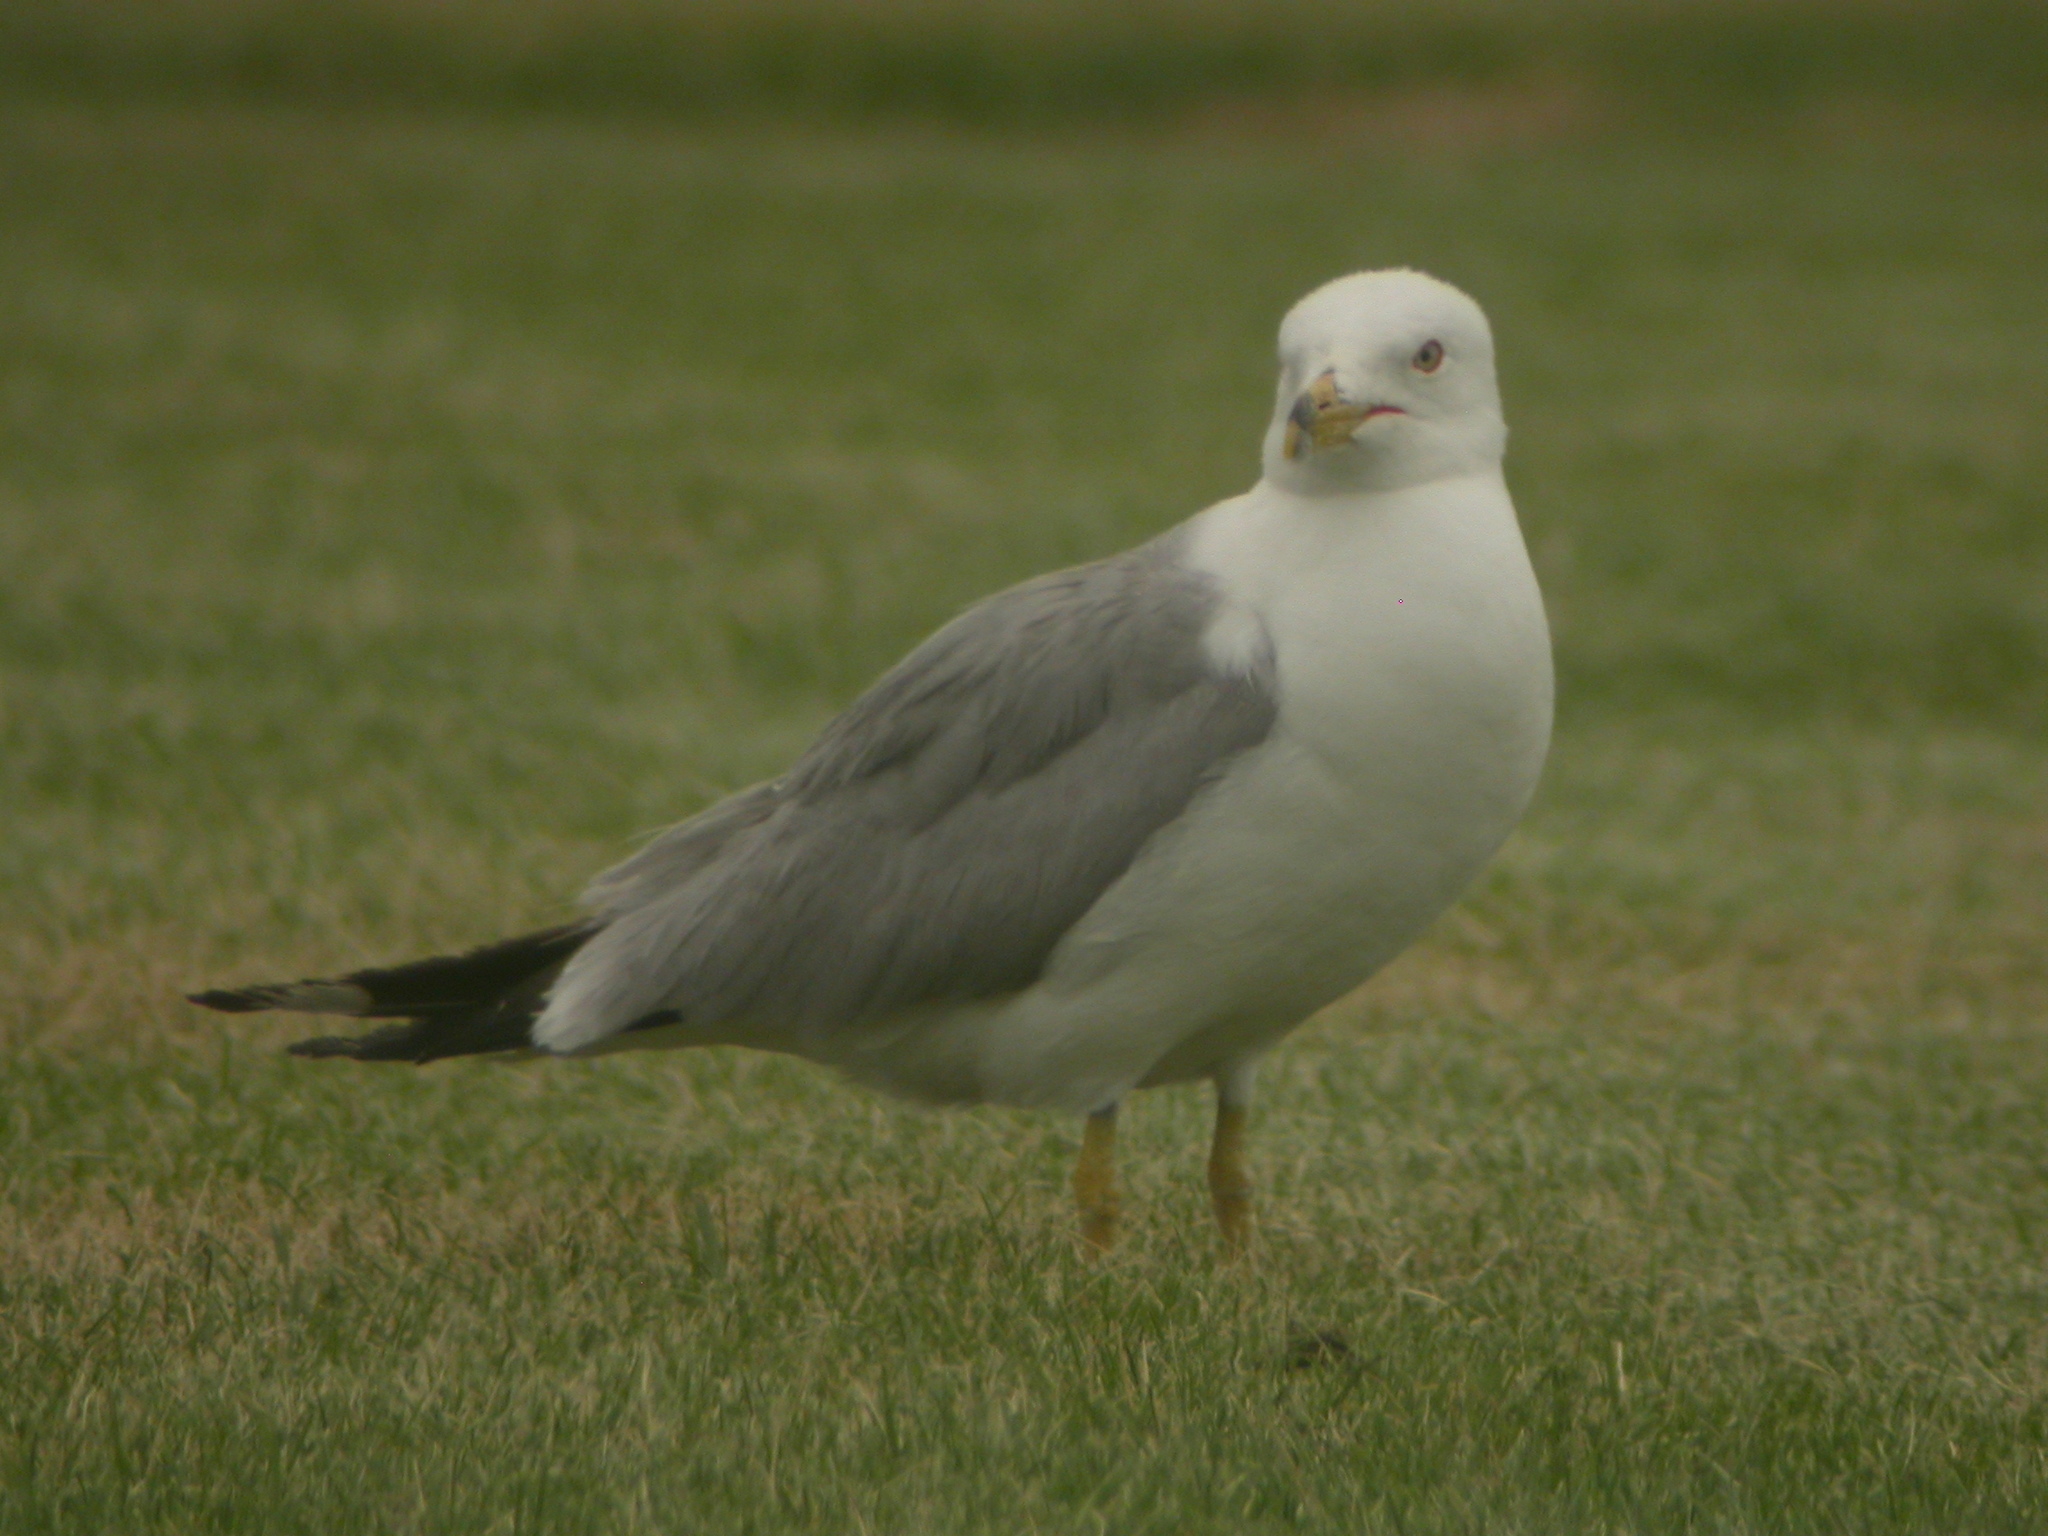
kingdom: Animalia
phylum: Chordata
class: Aves
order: Charadriiformes
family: Laridae
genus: Larus
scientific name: Larus delawarensis
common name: Ring-billed gull
